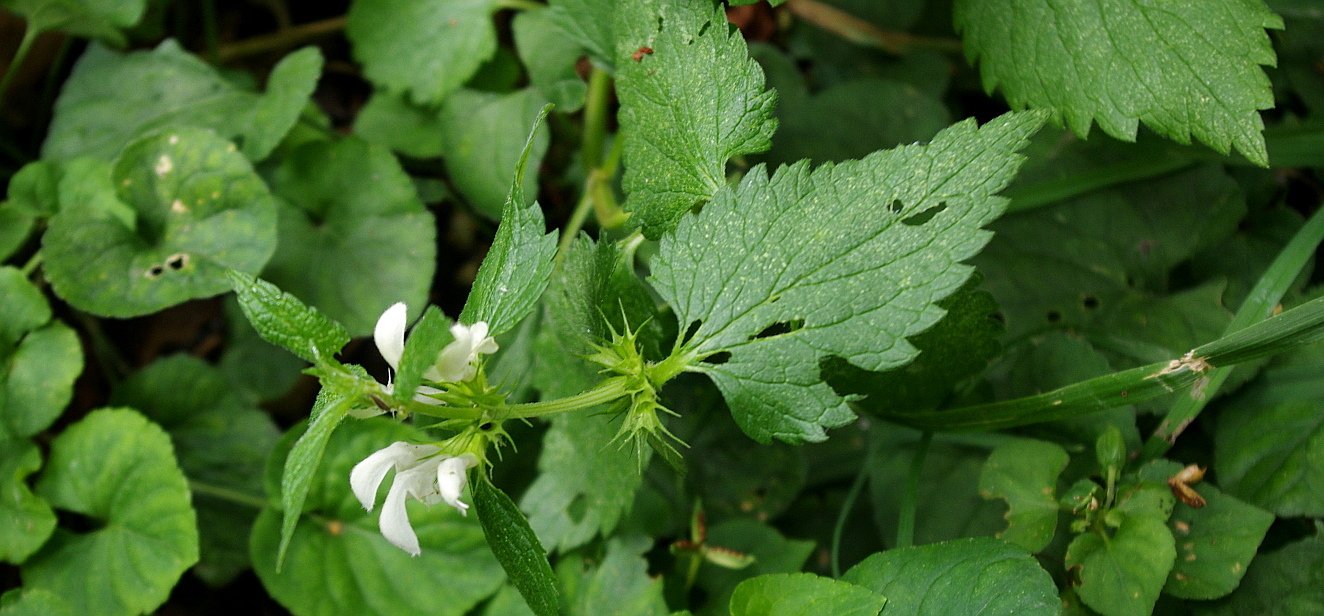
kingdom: Plantae
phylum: Tracheophyta
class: Magnoliopsida
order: Lamiales
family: Lamiaceae
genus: Lamium
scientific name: Lamium album
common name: White dead-nettle
